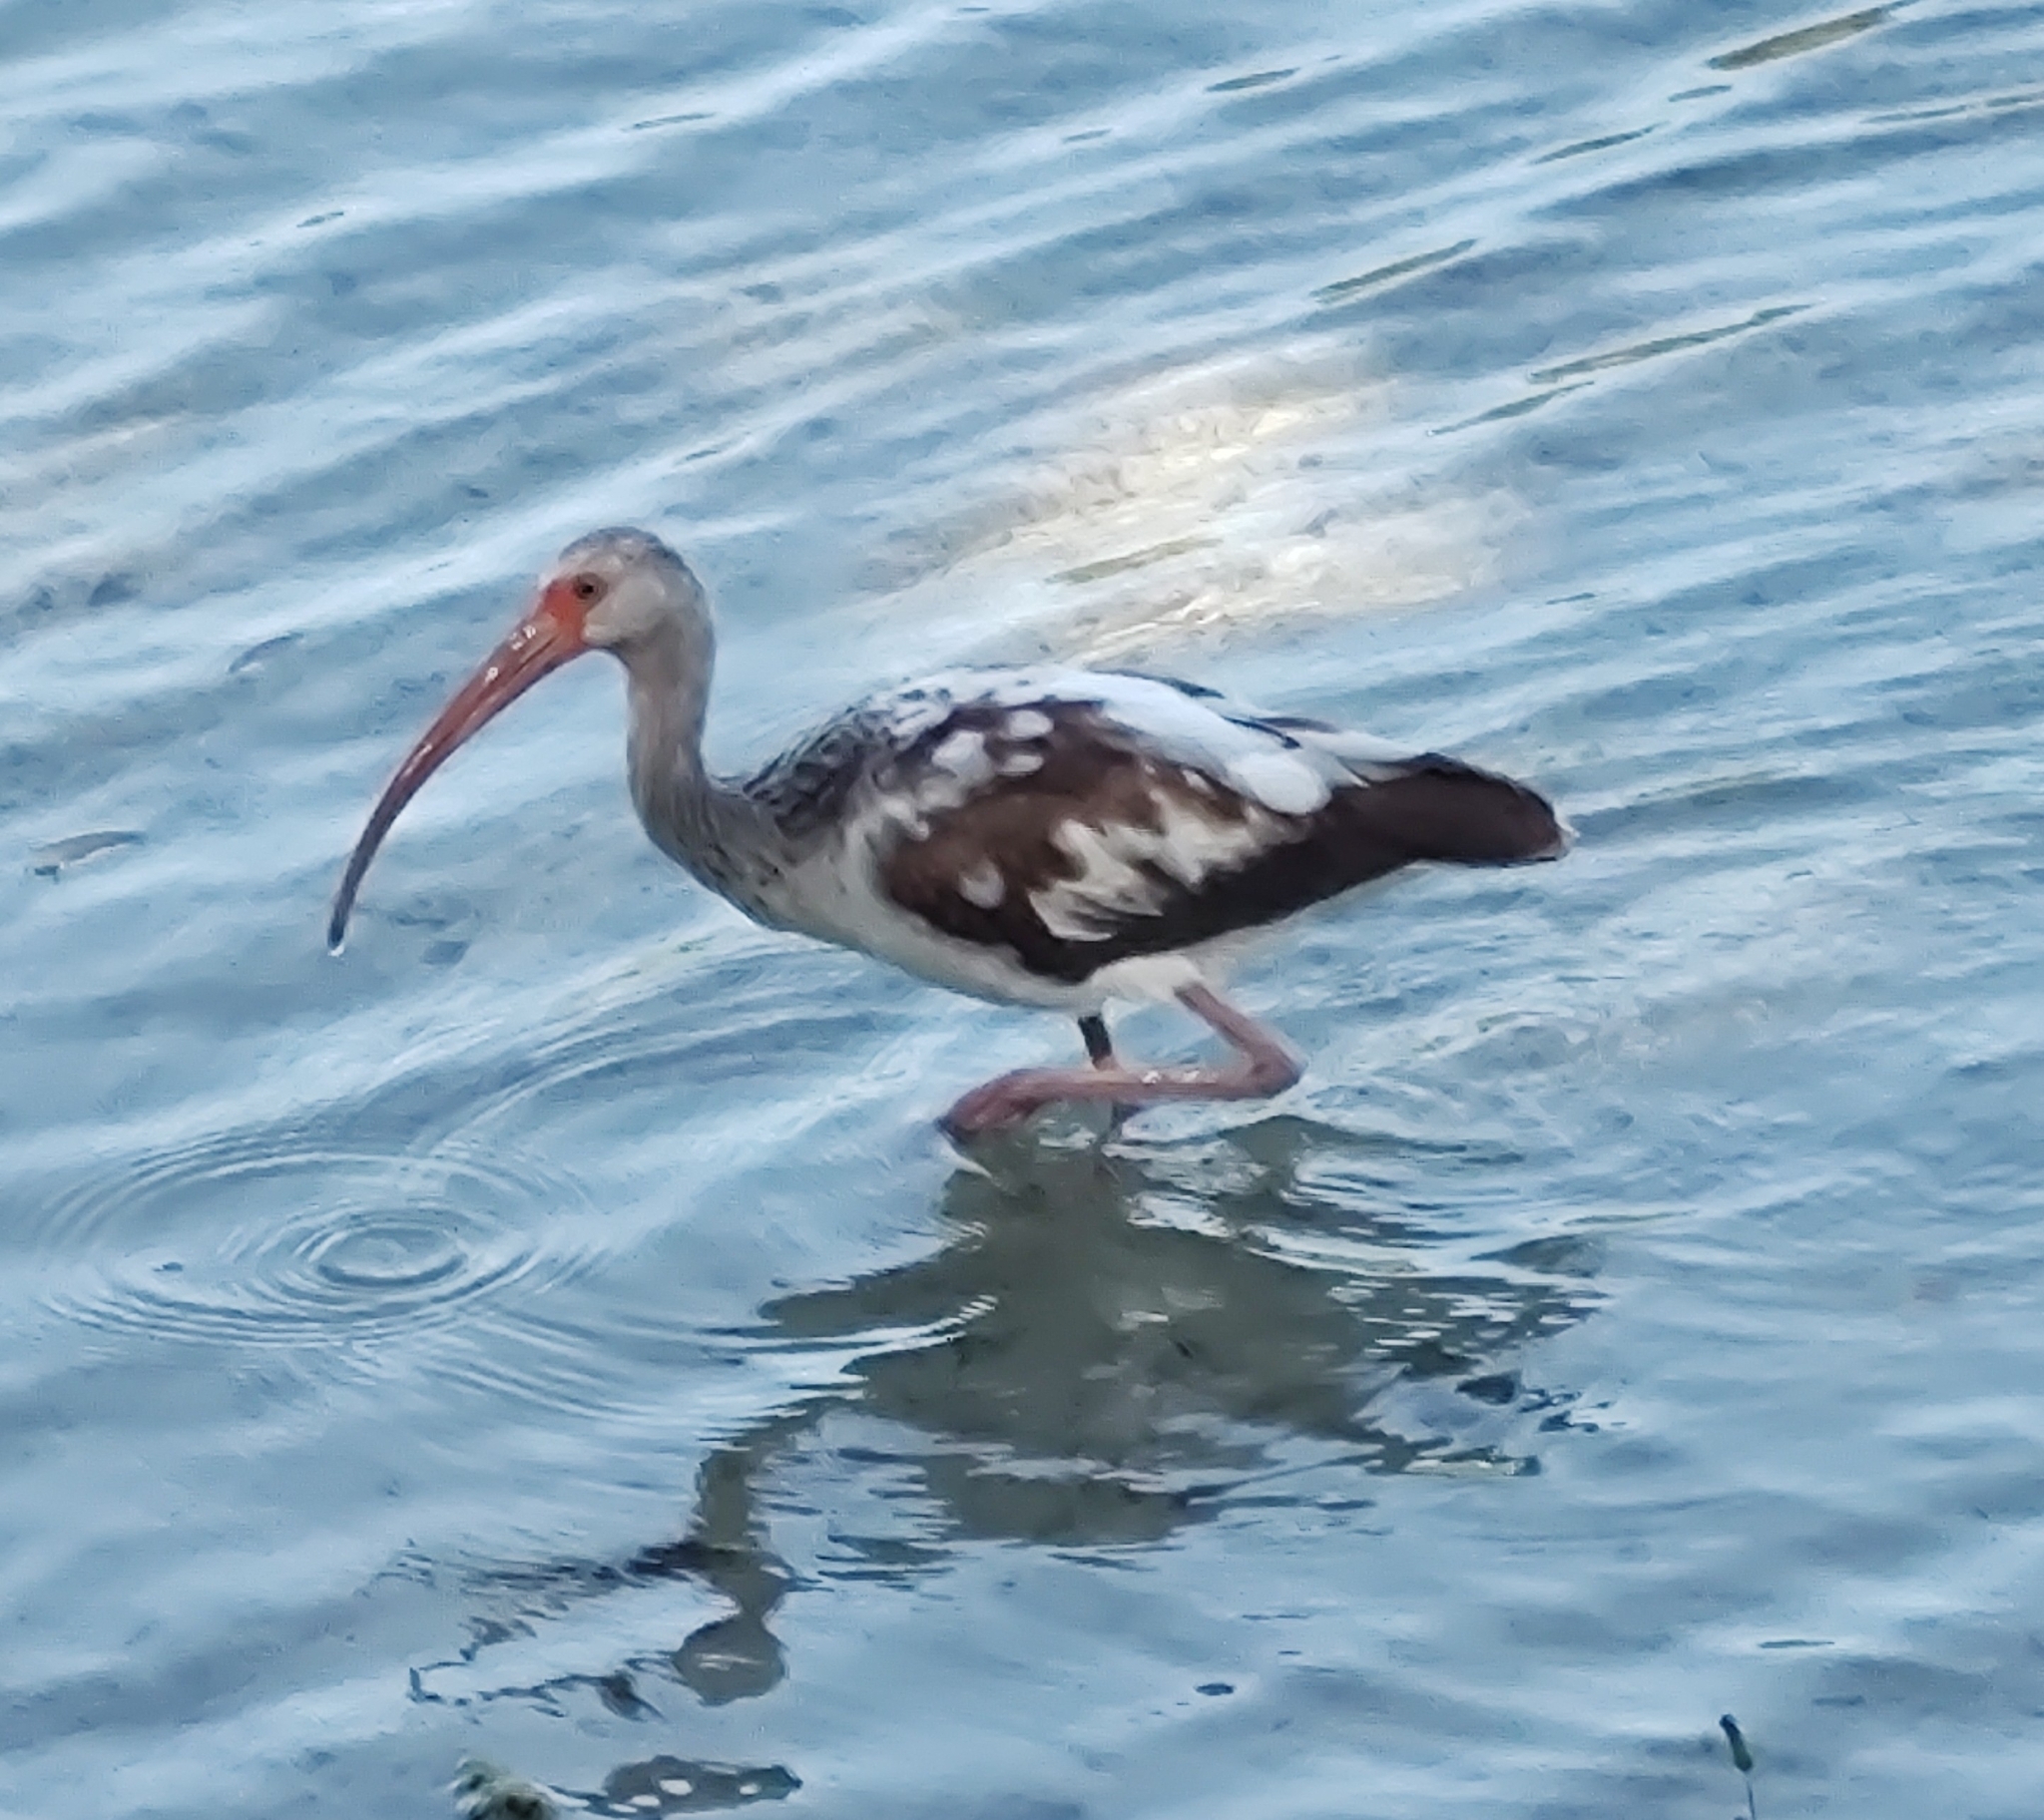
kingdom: Animalia
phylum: Chordata
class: Aves
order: Pelecaniformes
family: Threskiornithidae
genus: Eudocimus
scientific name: Eudocimus albus
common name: White ibis
